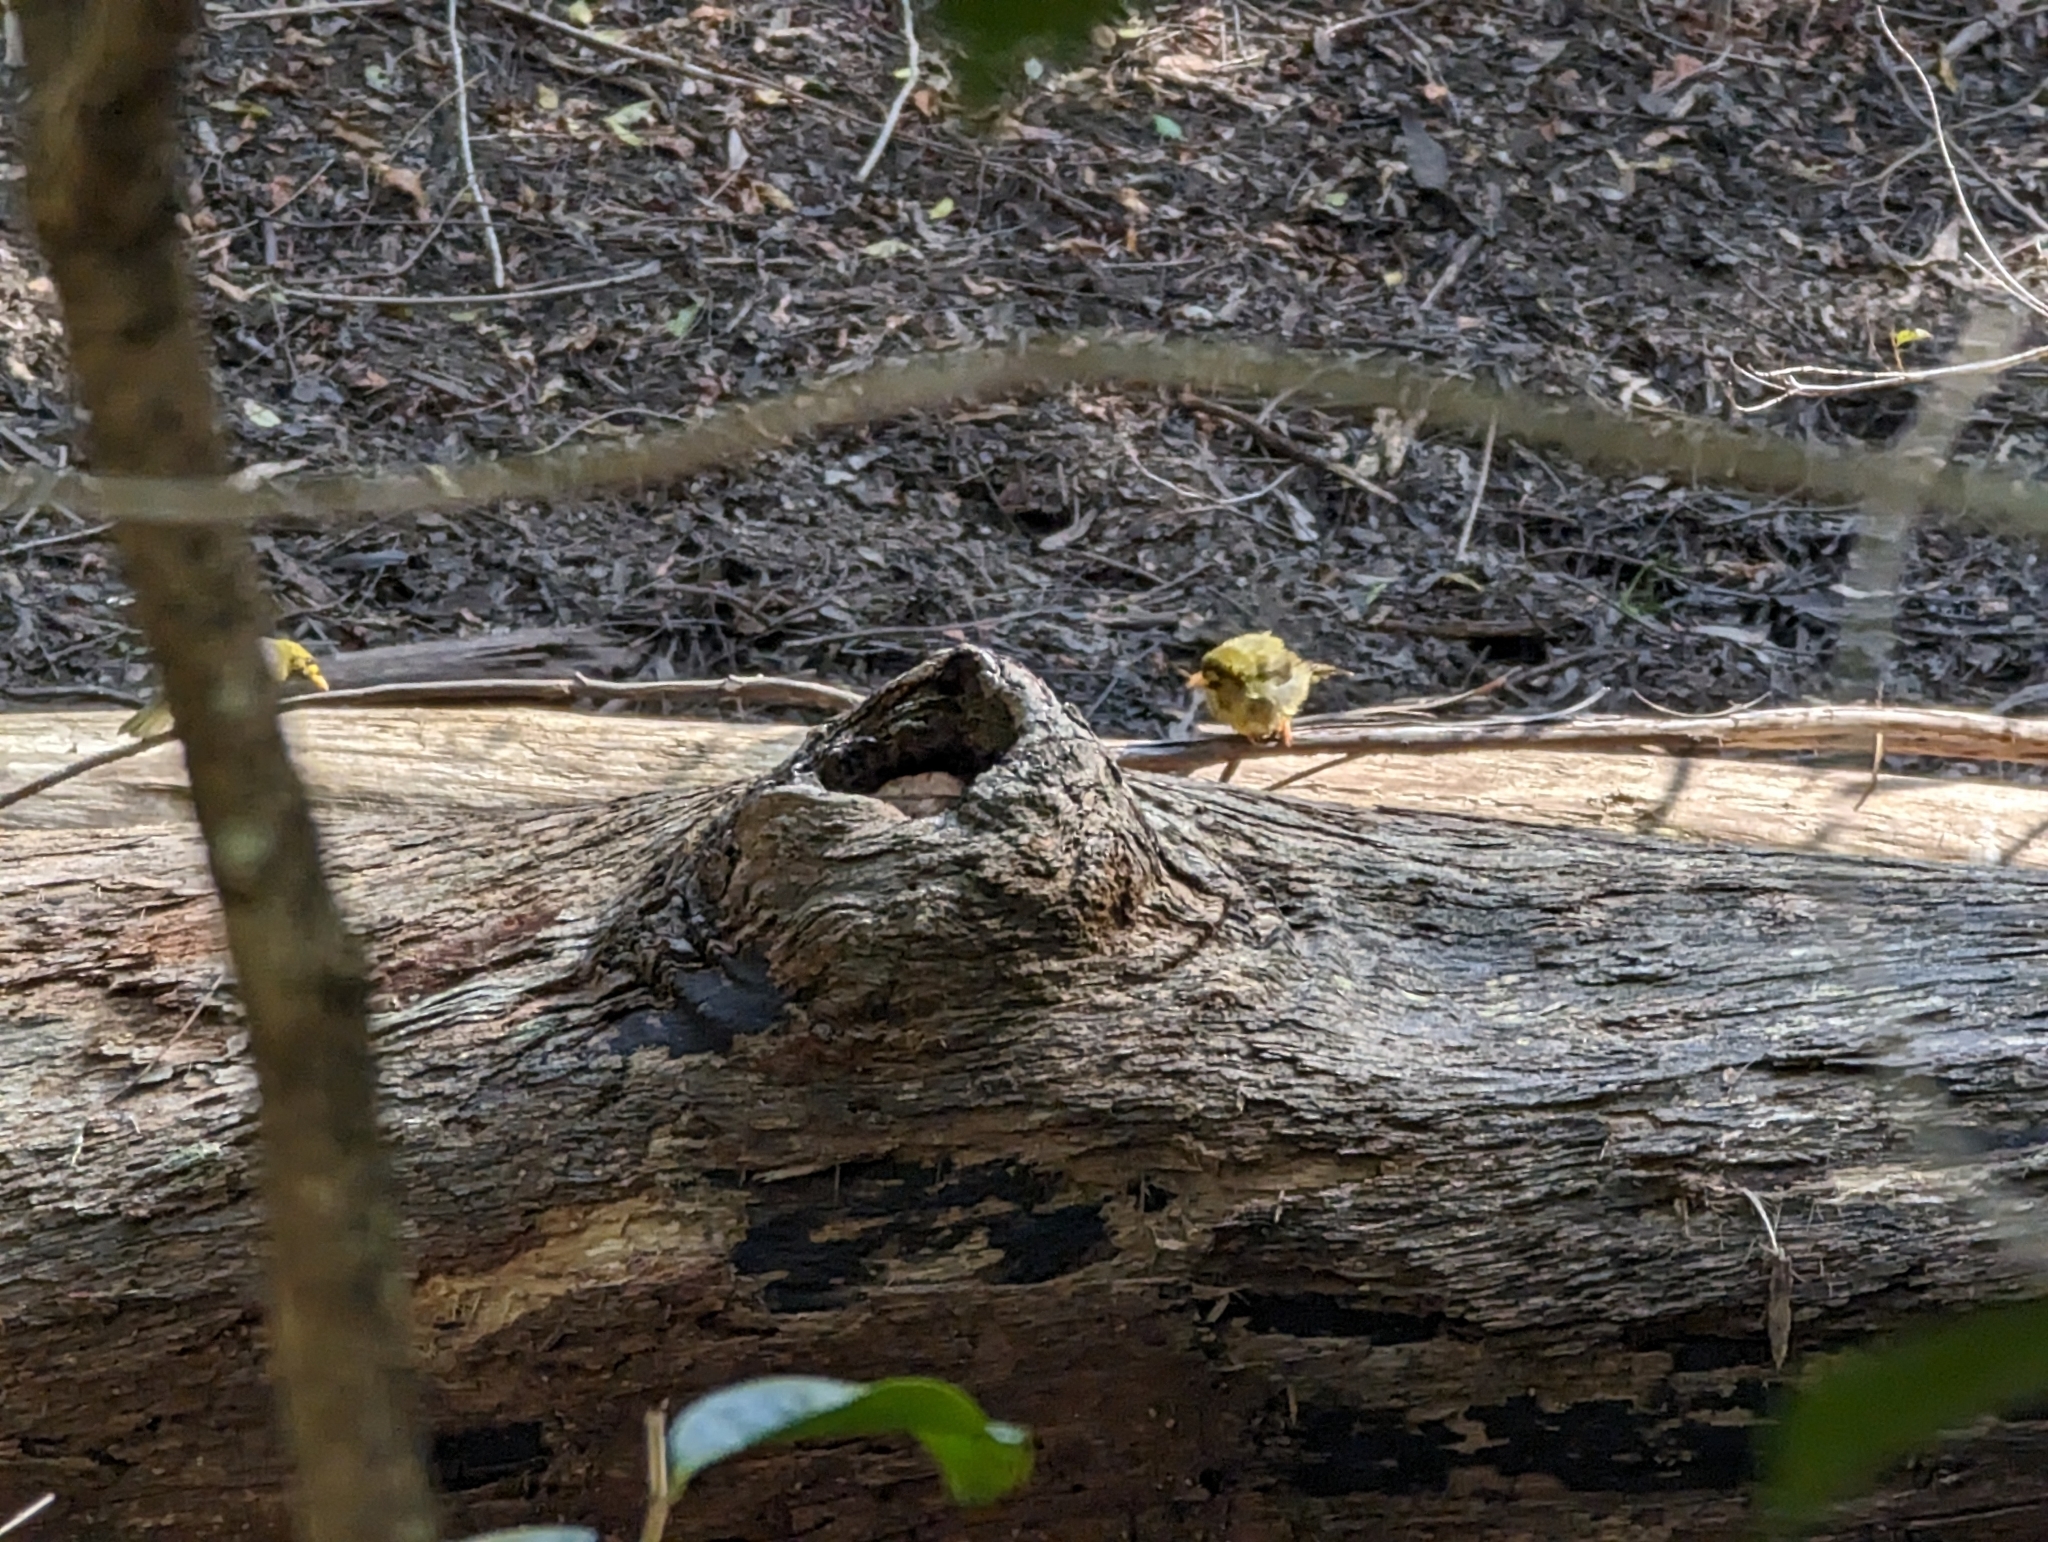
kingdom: Animalia
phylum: Chordata
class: Aves
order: Passeriformes
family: Meliphagidae
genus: Manorina
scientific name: Manorina melanophrys
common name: Bell miner
